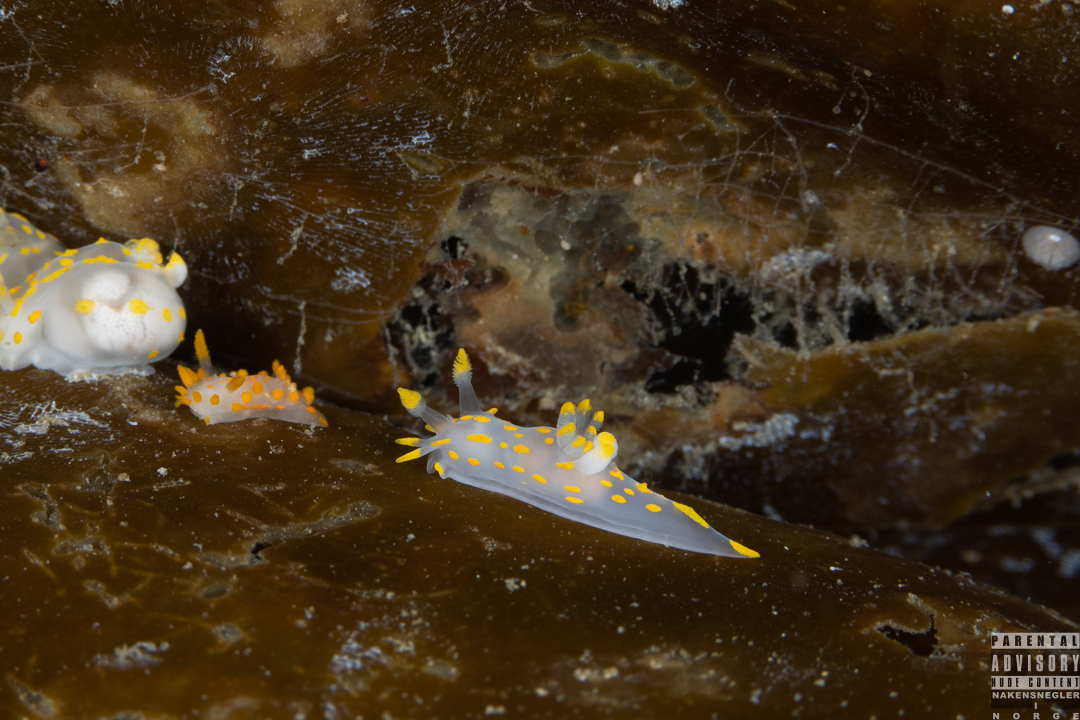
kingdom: Animalia
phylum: Mollusca
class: Gastropoda
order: Nudibranchia
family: Polyceridae
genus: Polycera
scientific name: Polycera quadrilineata
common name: Four-striped polycera
